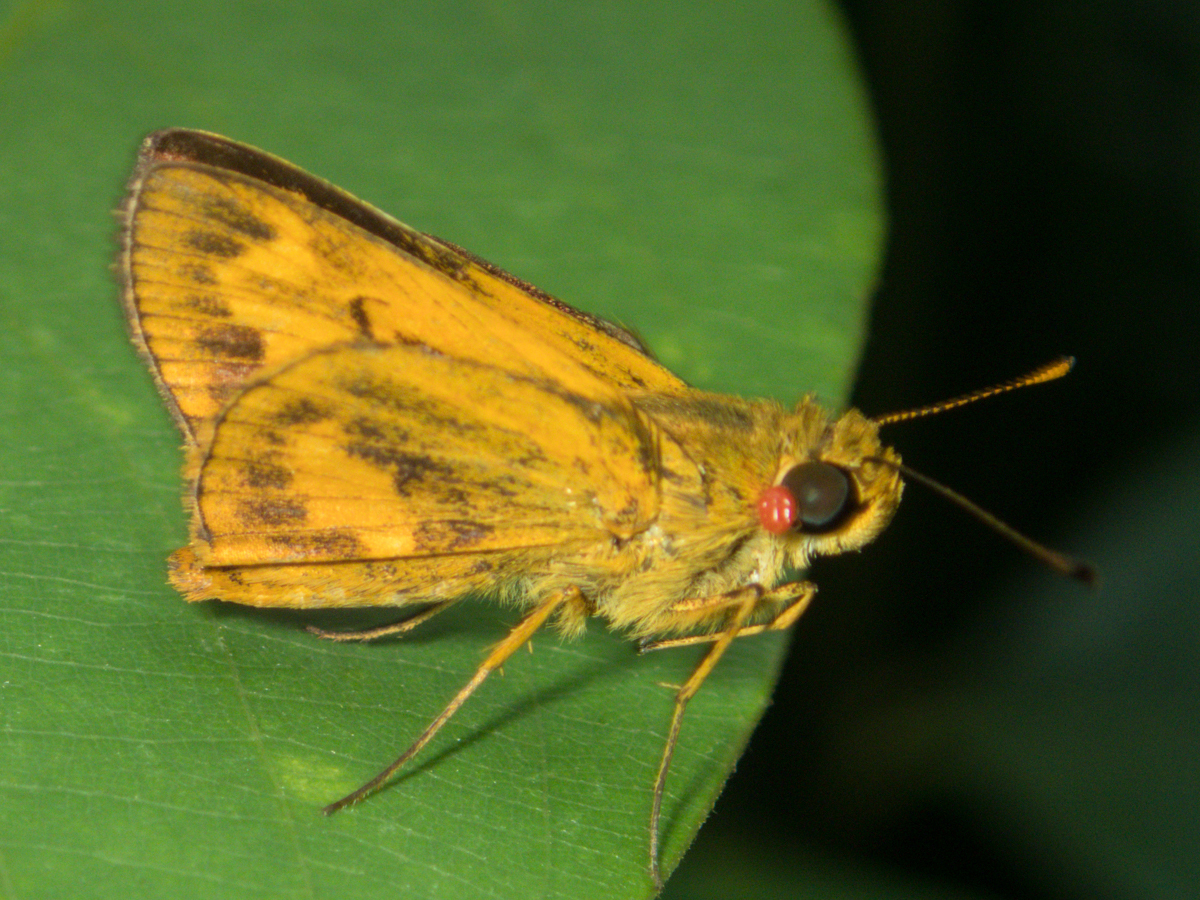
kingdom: Animalia
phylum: Arthropoda
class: Insecta
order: Lepidoptera
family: Hesperiidae
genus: Oriens
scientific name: Oriens gola
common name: Common dartlet
